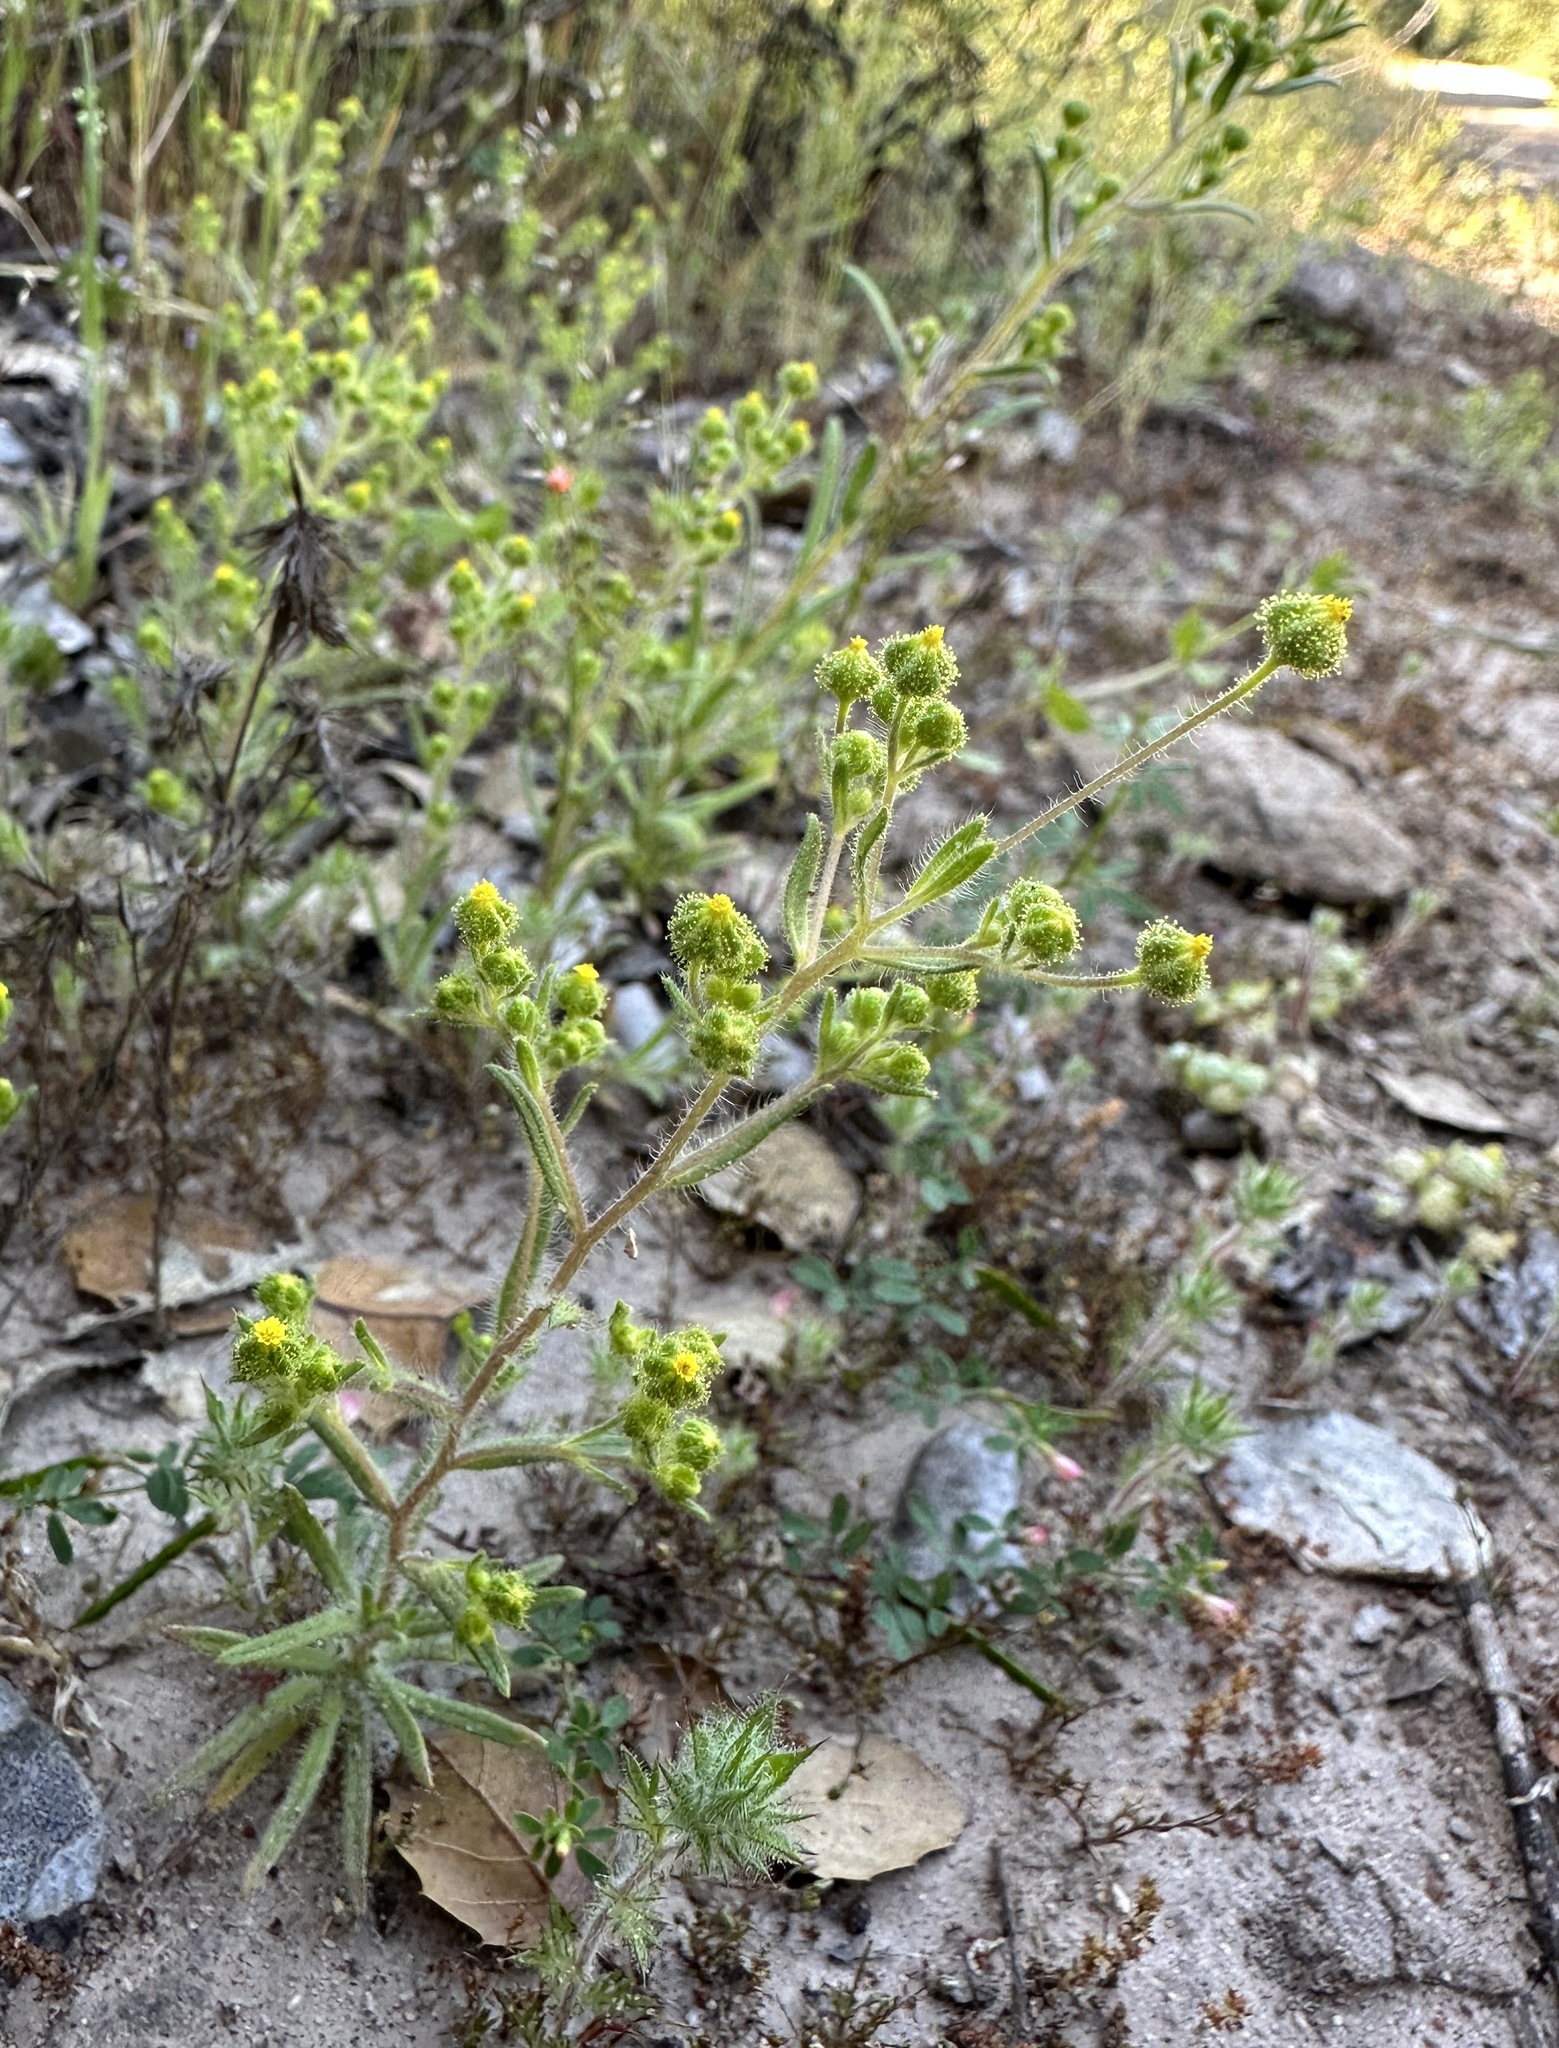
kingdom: Plantae
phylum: Tracheophyta
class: Magnoliopsida
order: Asterales
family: Asteraceae
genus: Madia
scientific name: Madia exigua
